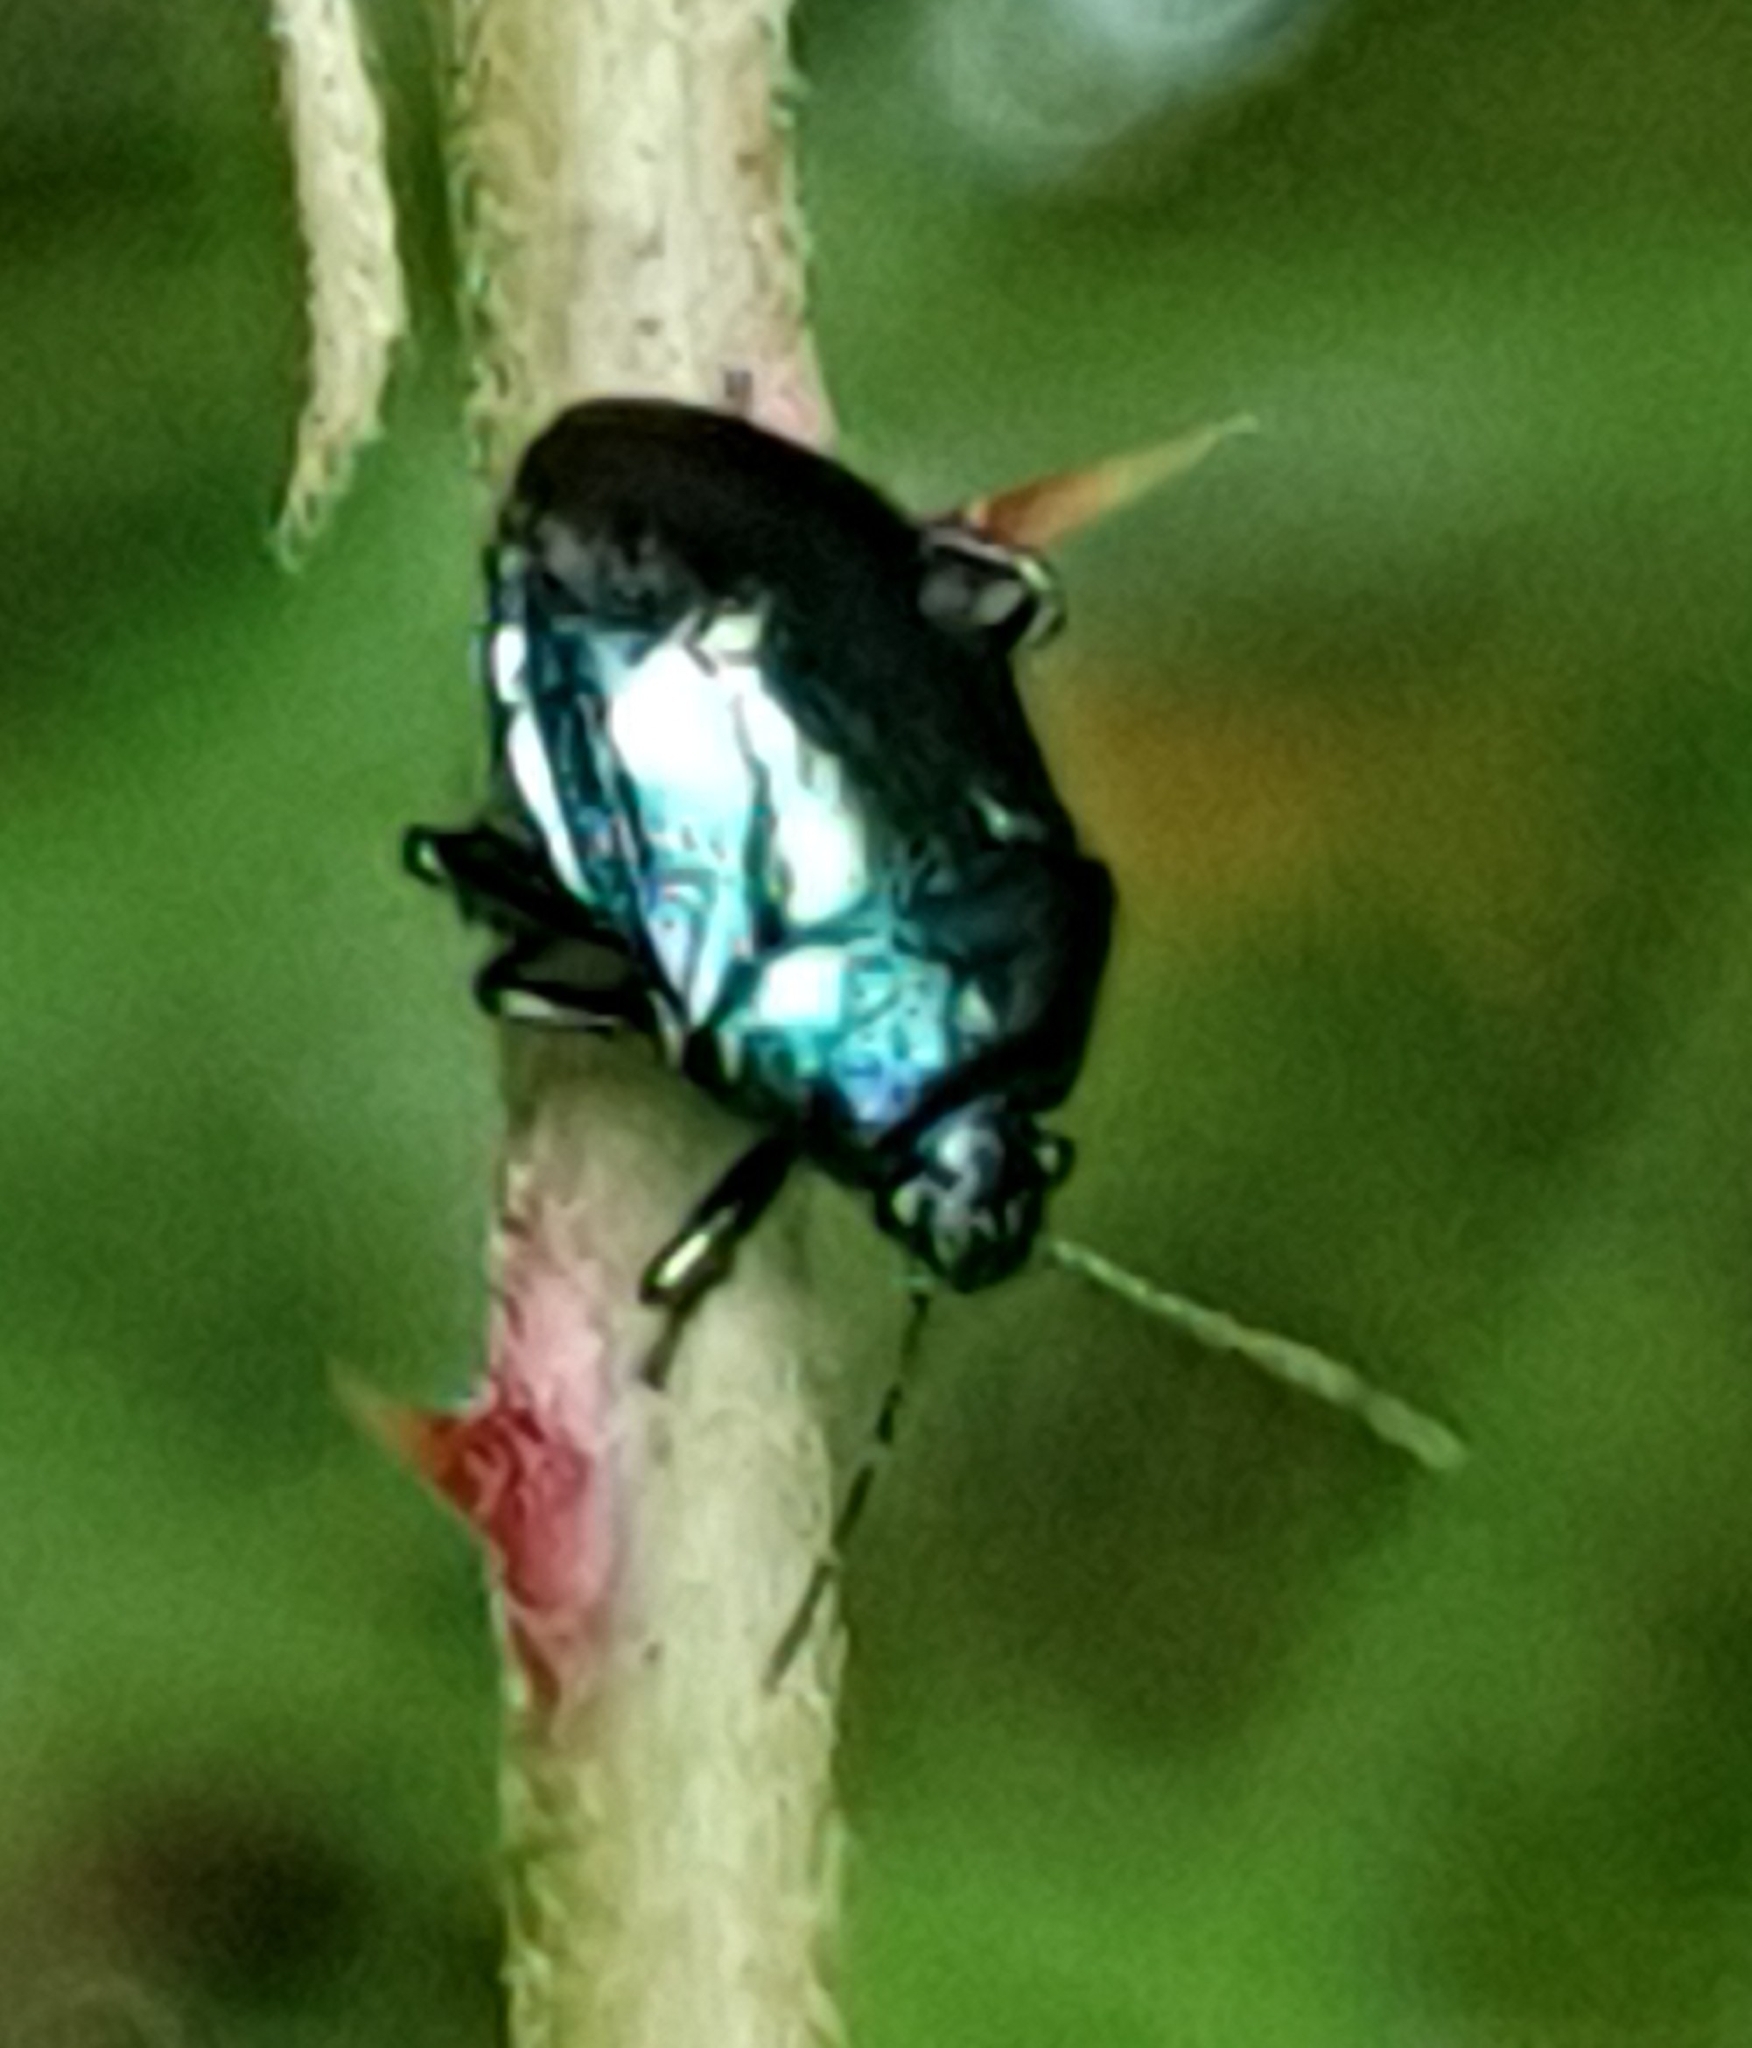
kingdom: Animalia
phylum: Arthropoda
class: Insecta
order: Hemiptera
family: Pentatomidae
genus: Zicrona
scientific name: Zicrona caerulea
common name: Blue shieldbug
